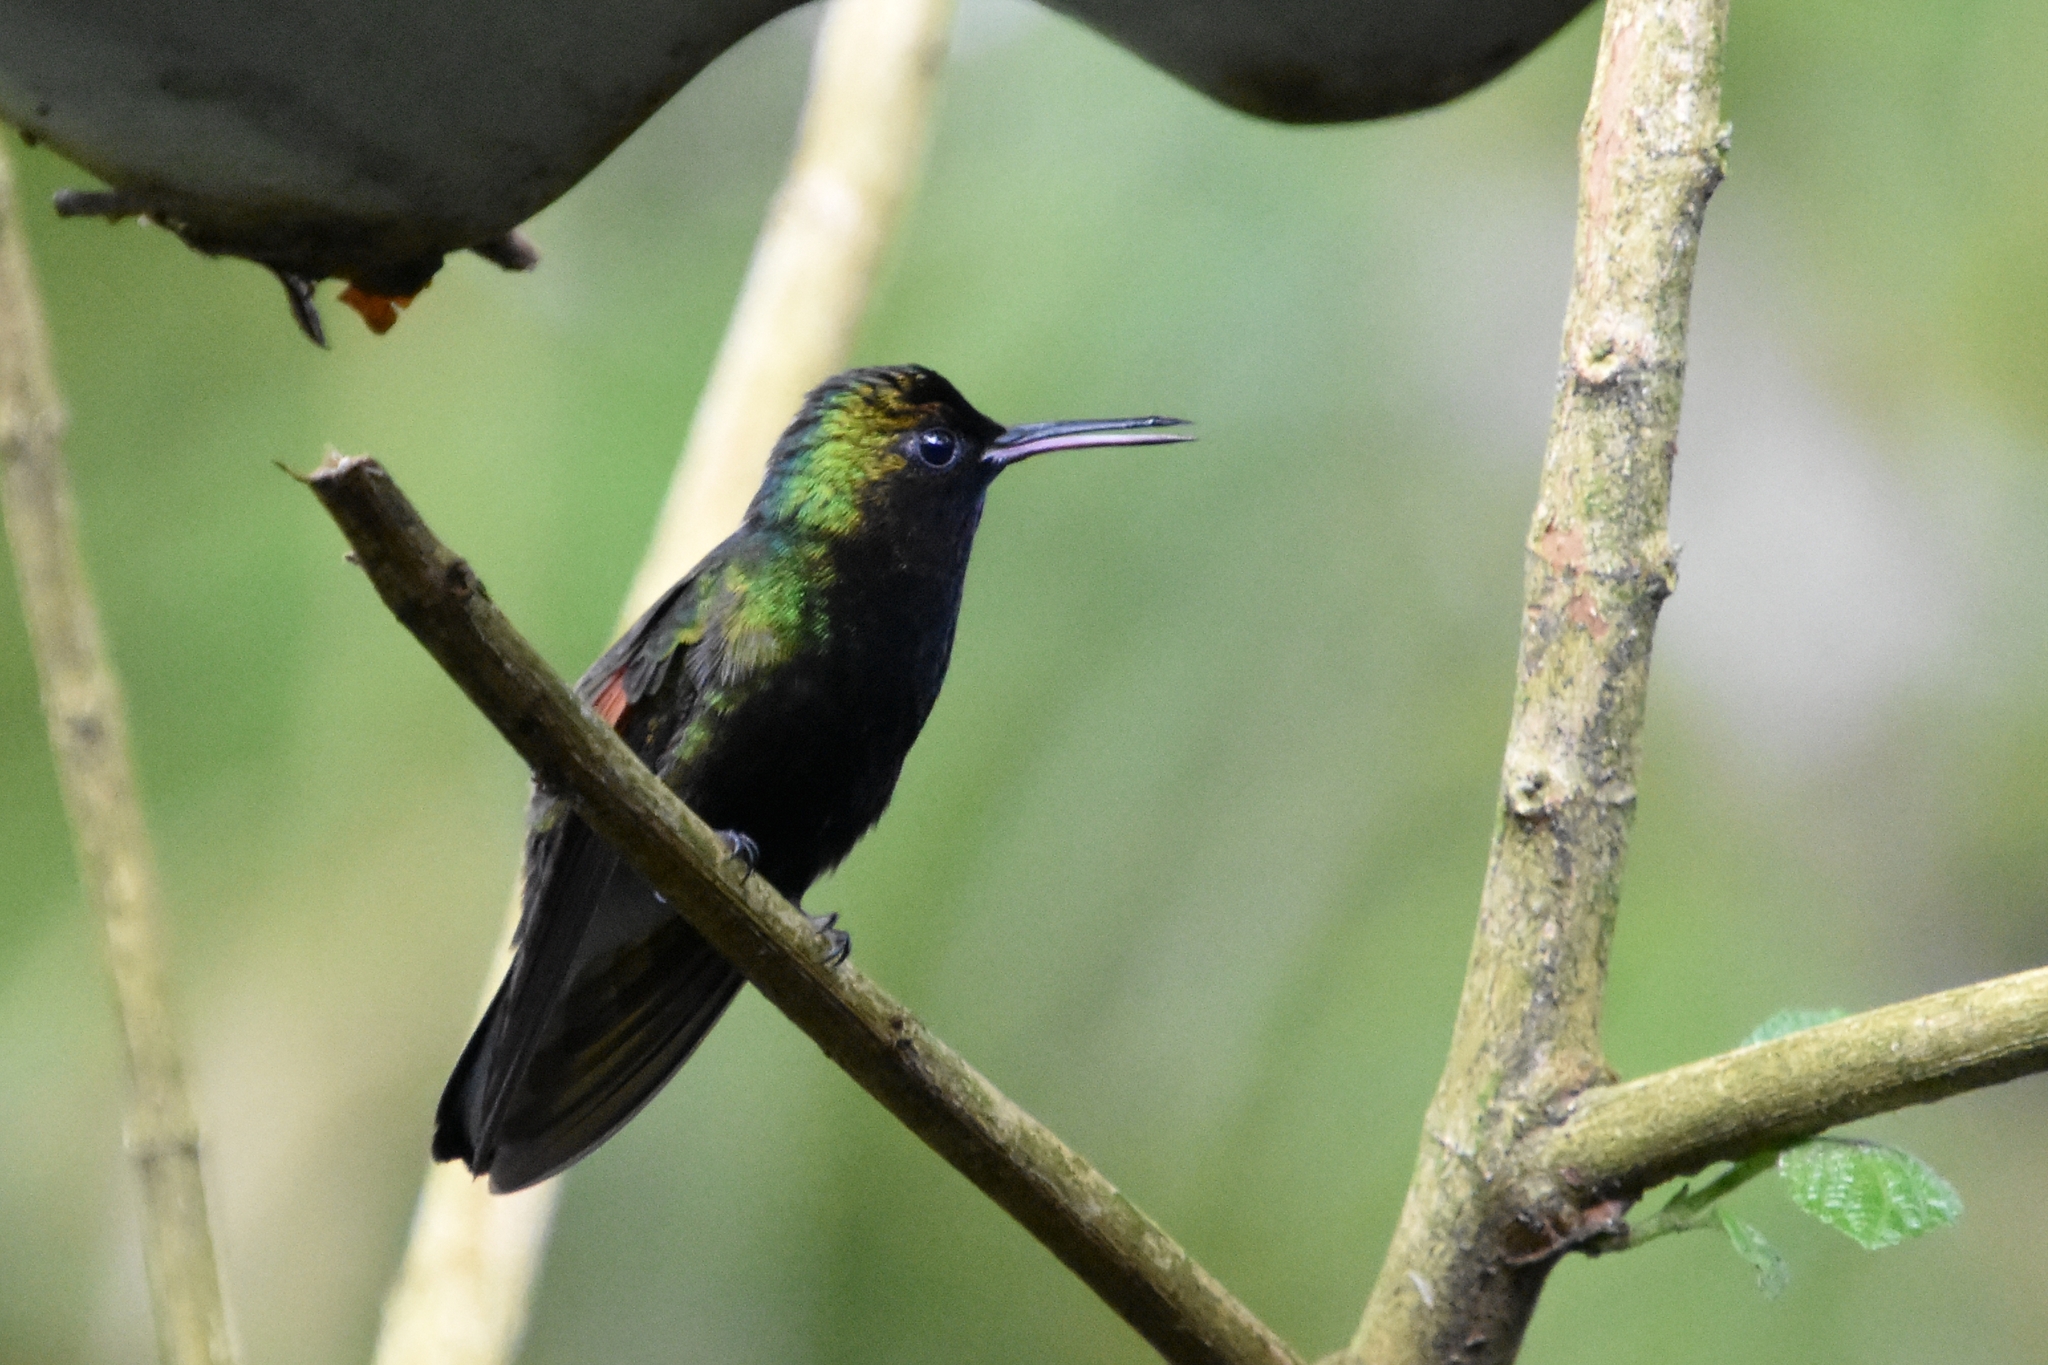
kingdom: Animalia
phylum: Chordata
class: Aves
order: Apodiformes
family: Trochilidae
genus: Eupherusa
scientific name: Eupherusa nigriventris
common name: Black-bellied hummingbird
